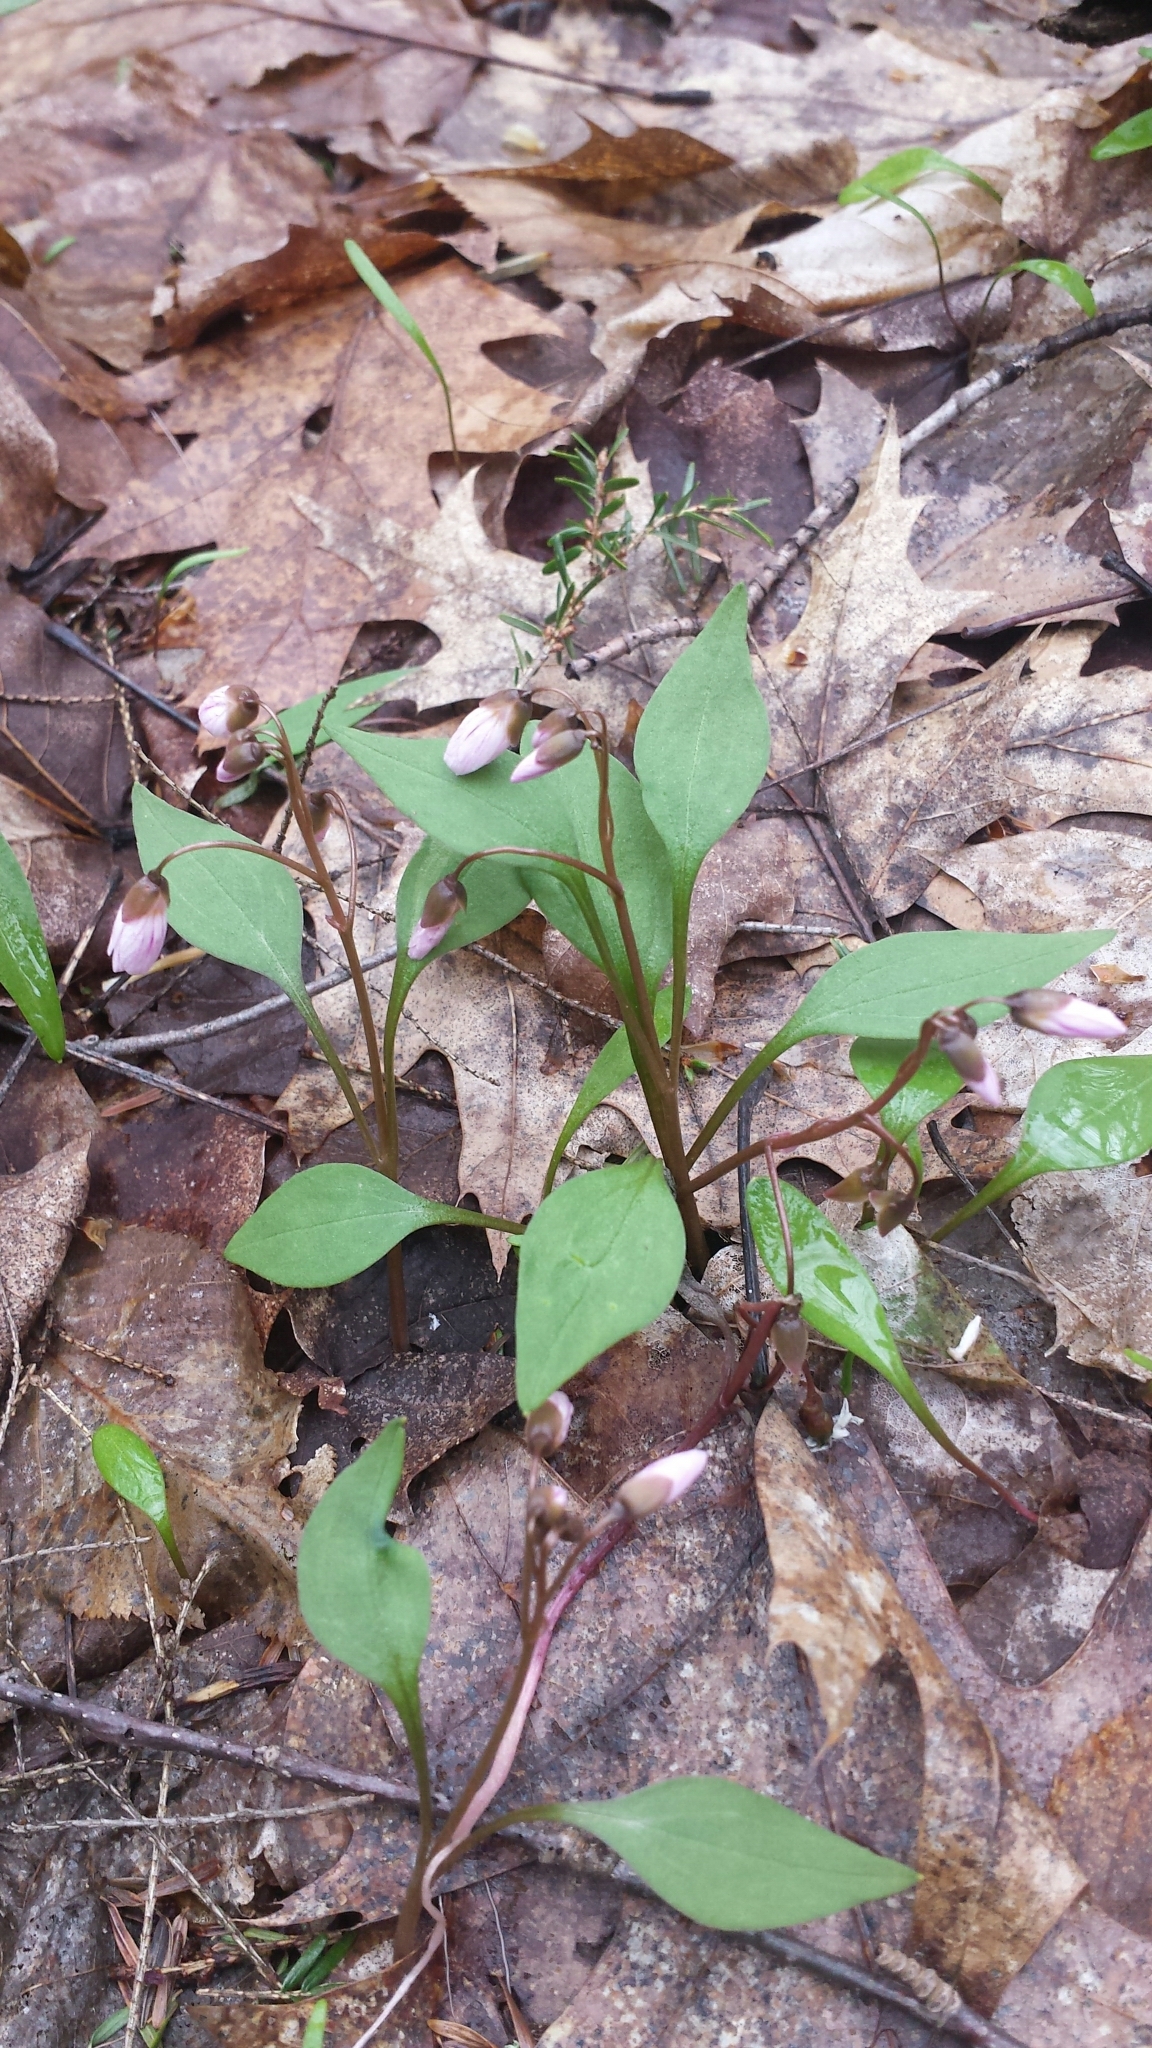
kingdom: Plantae
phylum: Tracheophyta
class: Magnoliopsida
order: Caryophyllales
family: Montiaceae
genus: Claytonia
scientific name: Claytonia caroliniana
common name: Carolina spring beauty
